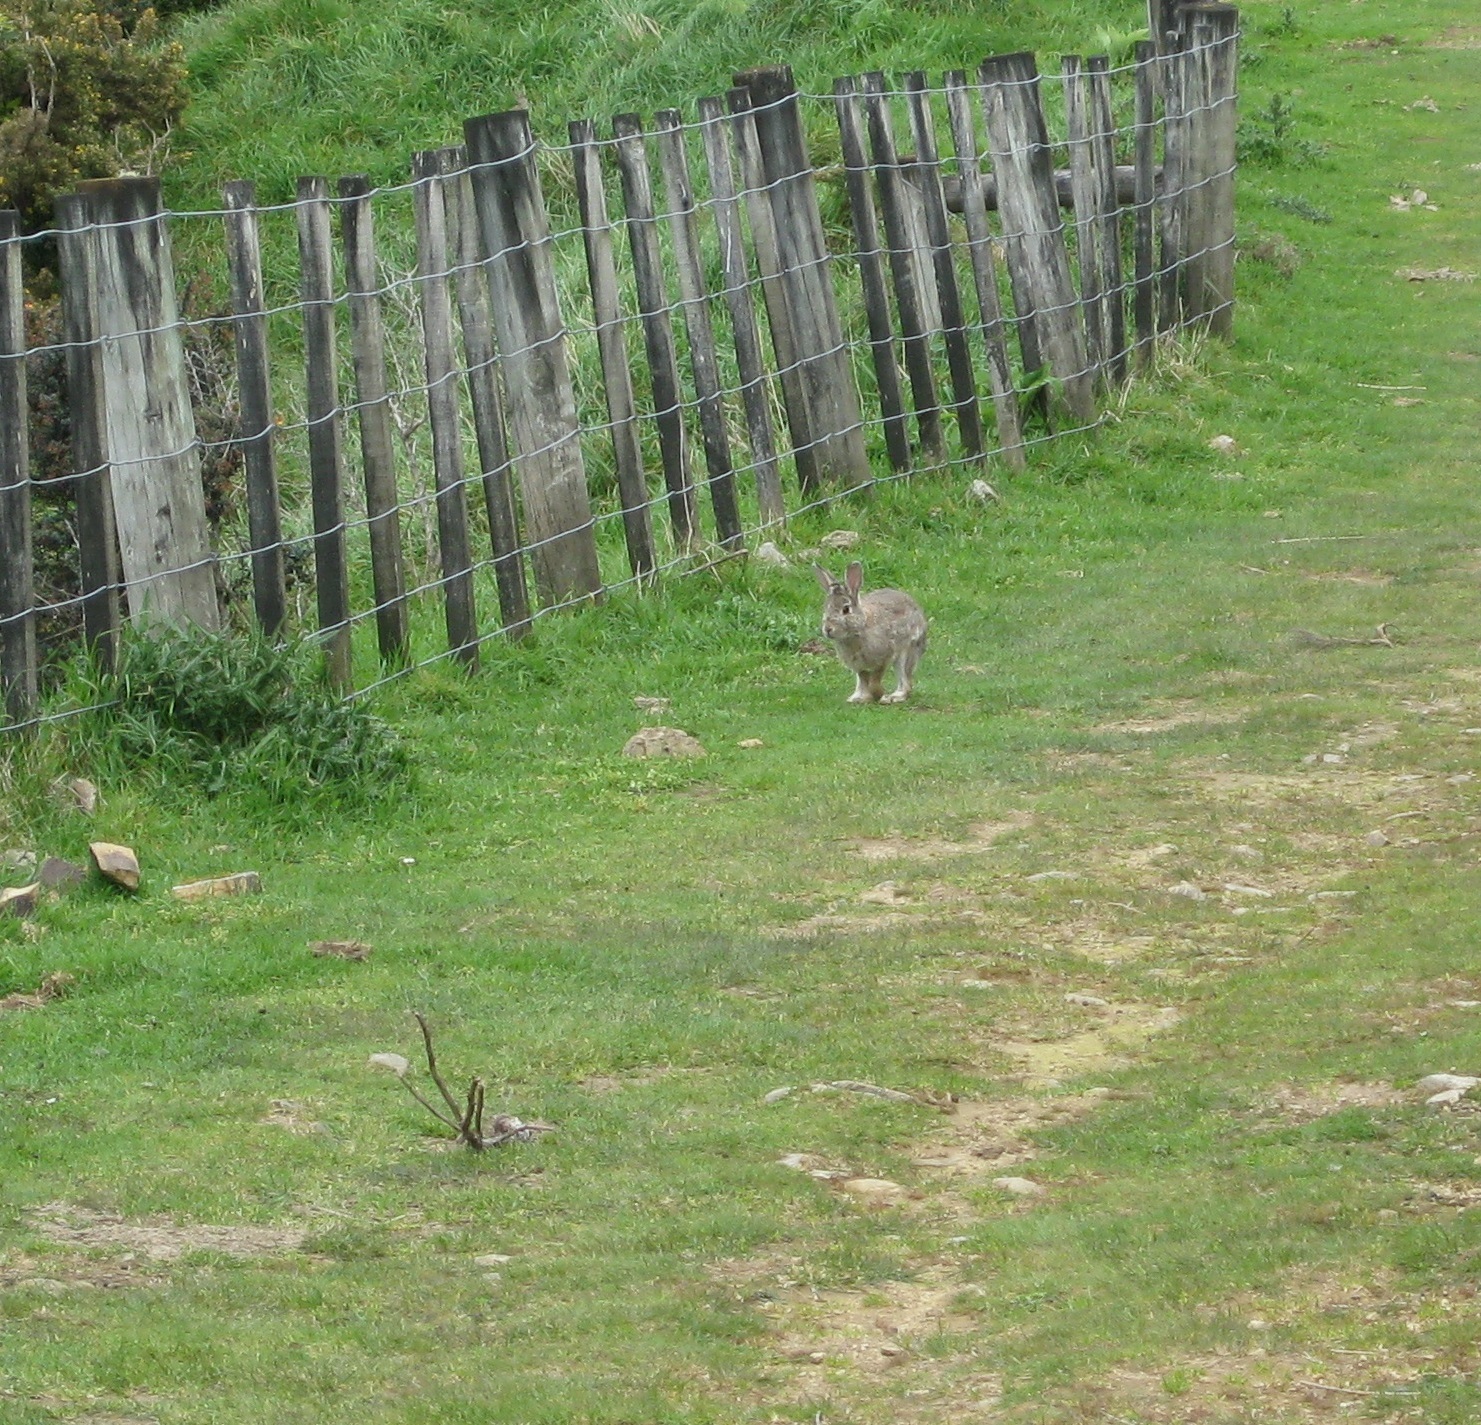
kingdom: Animalia
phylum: Chordata
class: Mammalia
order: Lagomorpha
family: Leporidae
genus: Oryctolagus
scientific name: Oryctolagus cuniculus
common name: European rabbit
